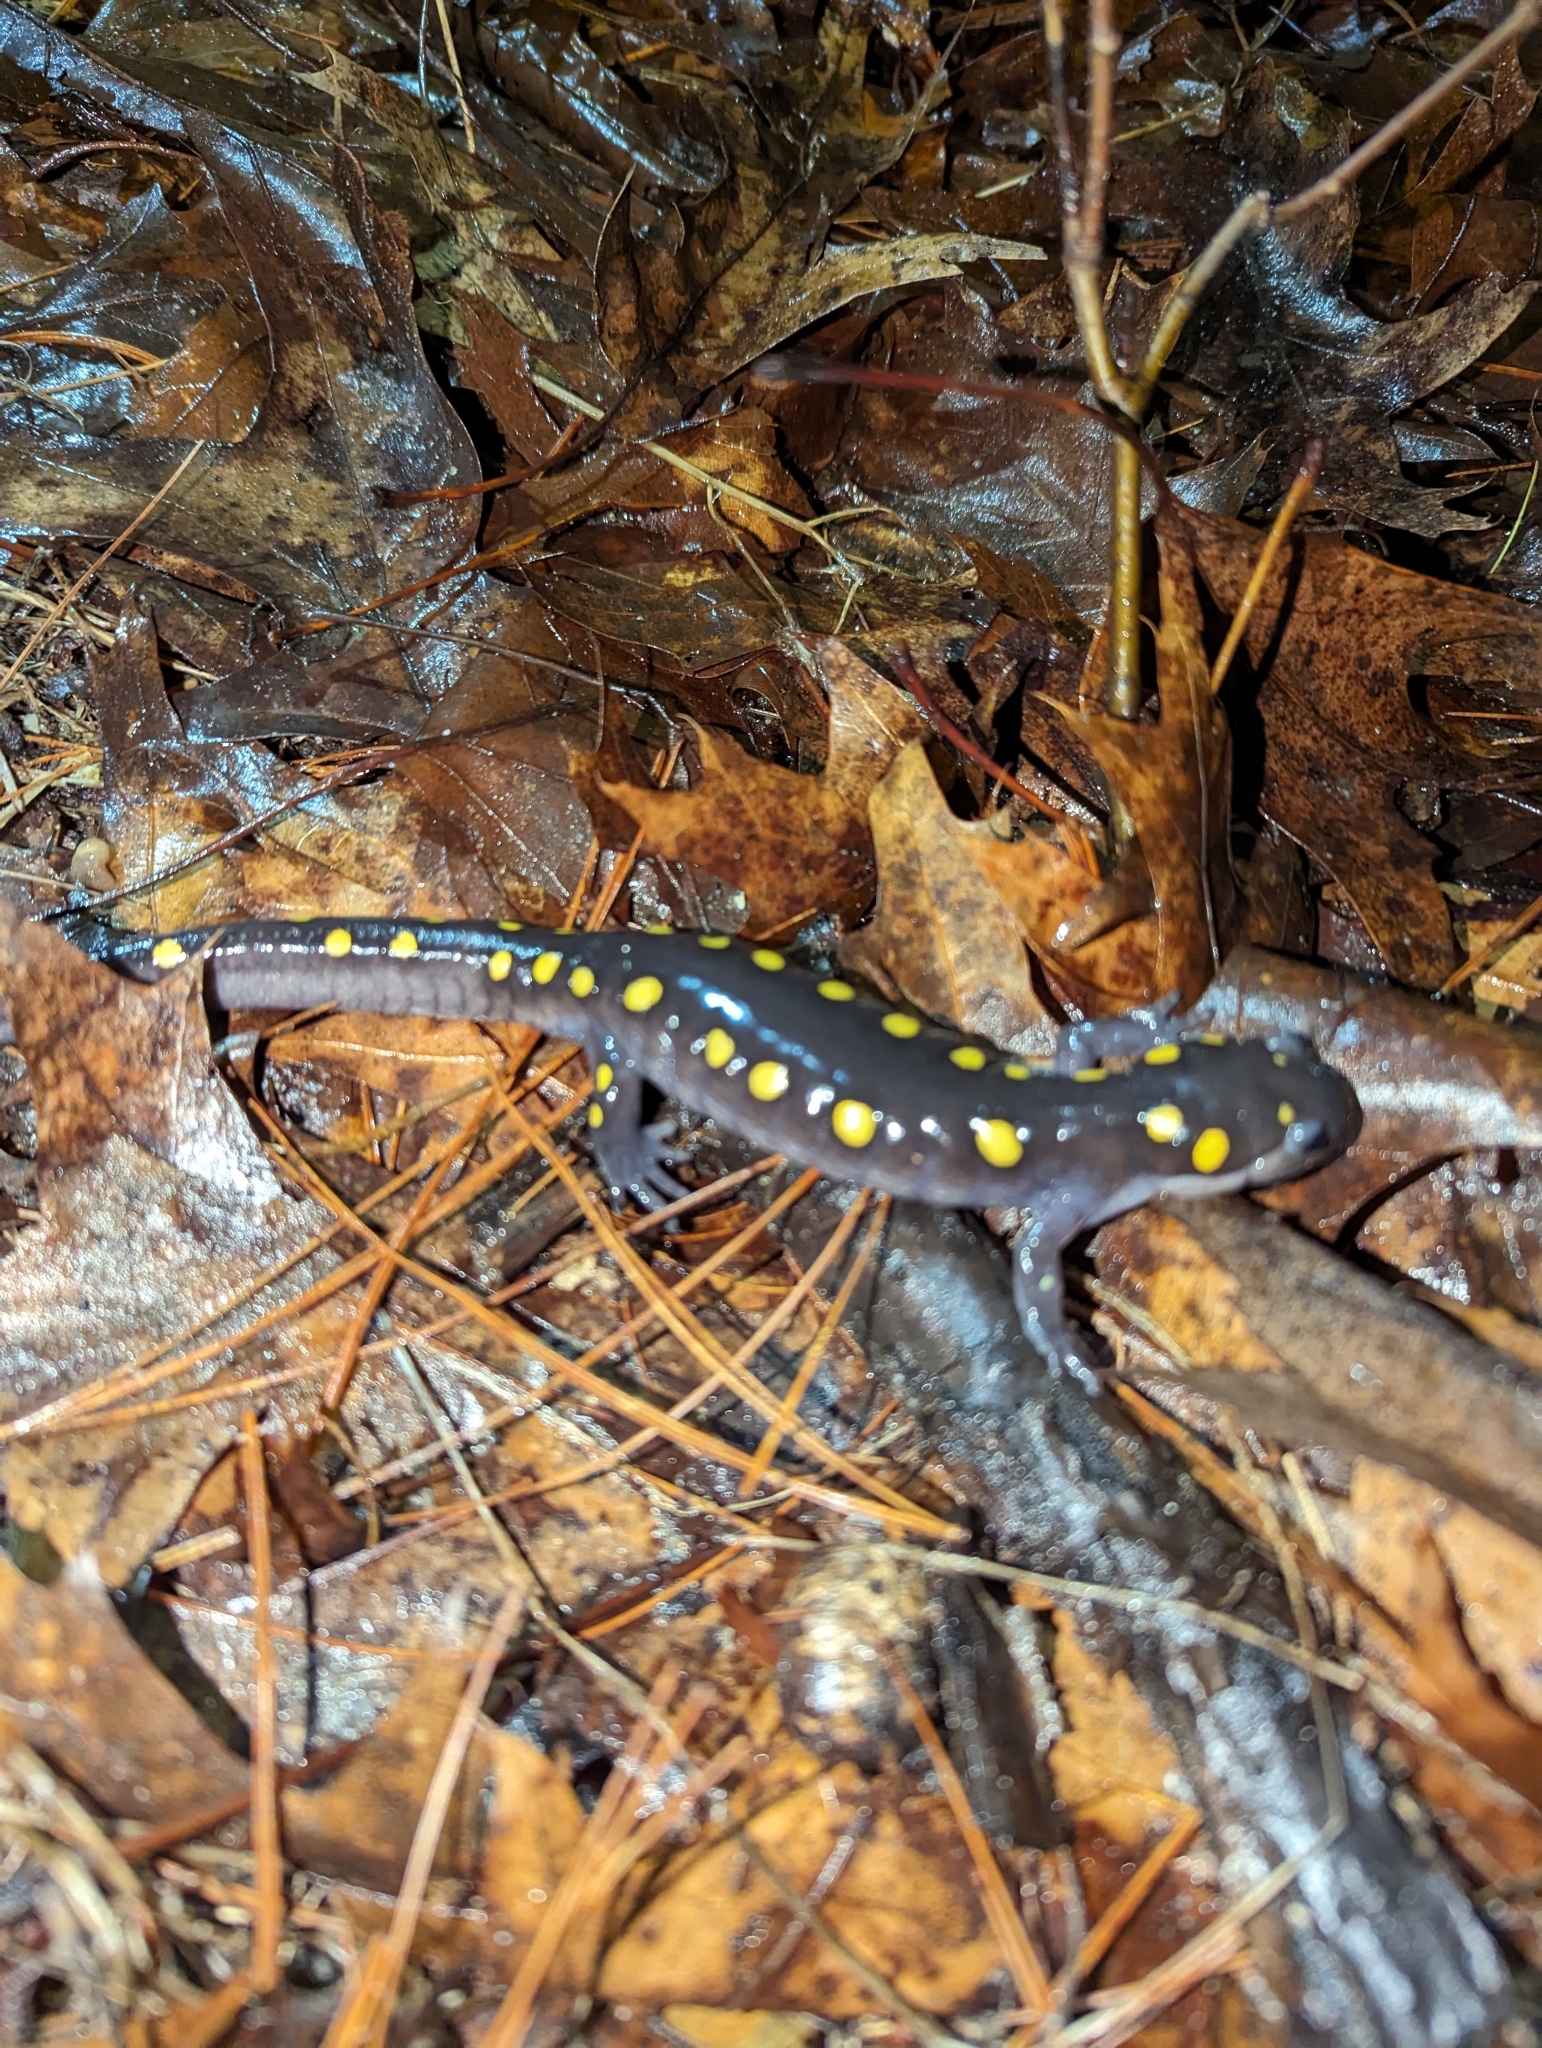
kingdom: Animalia
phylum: Chordata
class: Amphibia
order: Caudata
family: Ambystomatidae
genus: Ambystoma
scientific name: Ambystoma maculatum
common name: Spotted salamander
